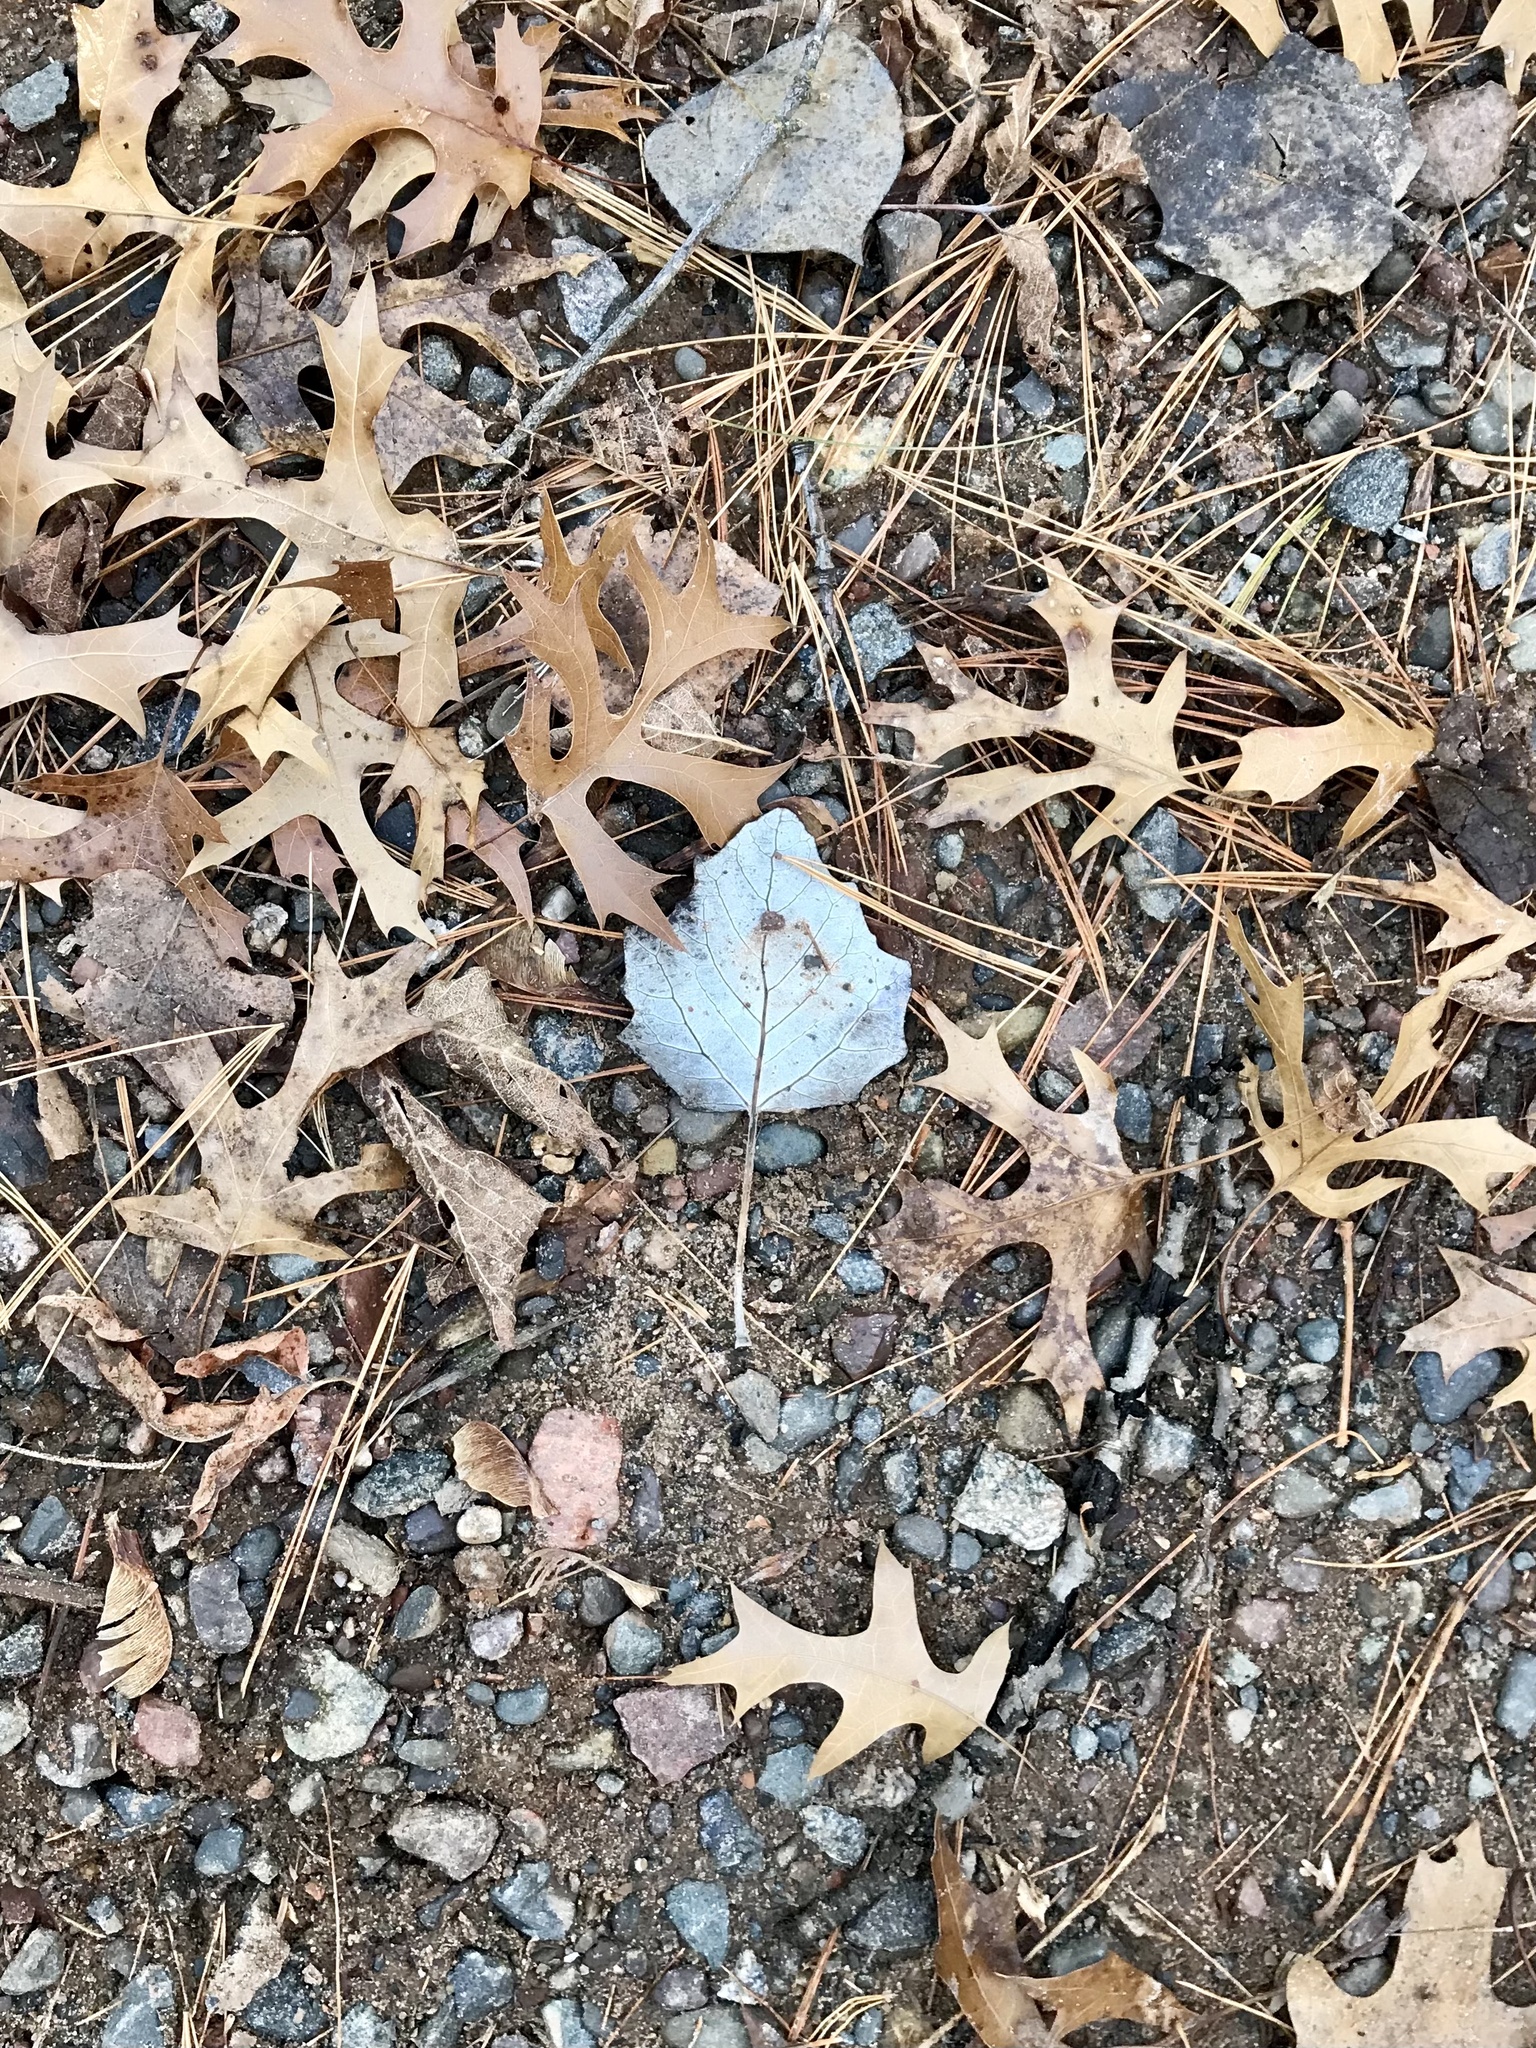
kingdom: Plantae
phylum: Tracheophyta
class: Magnoliopsida
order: Malpighiales
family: Salicaceae
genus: Populus
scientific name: Populus alba
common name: White poplar
